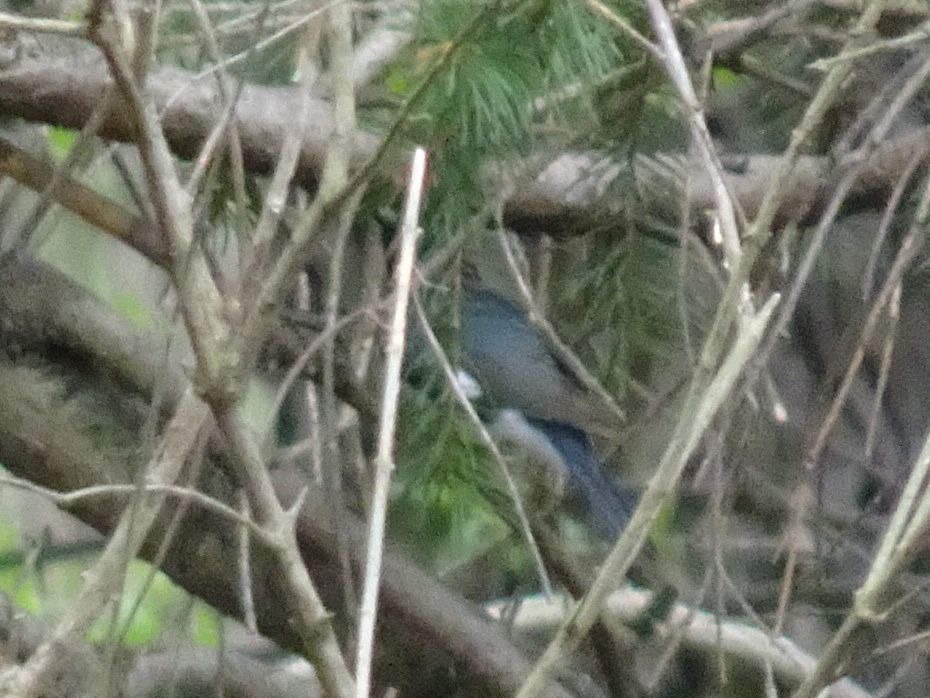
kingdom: Animalia
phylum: Chordata
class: Aves
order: Passeriformes
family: Parulidae
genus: Setophaga
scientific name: Setophaga caerulescens
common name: Black-throated blue warbler
